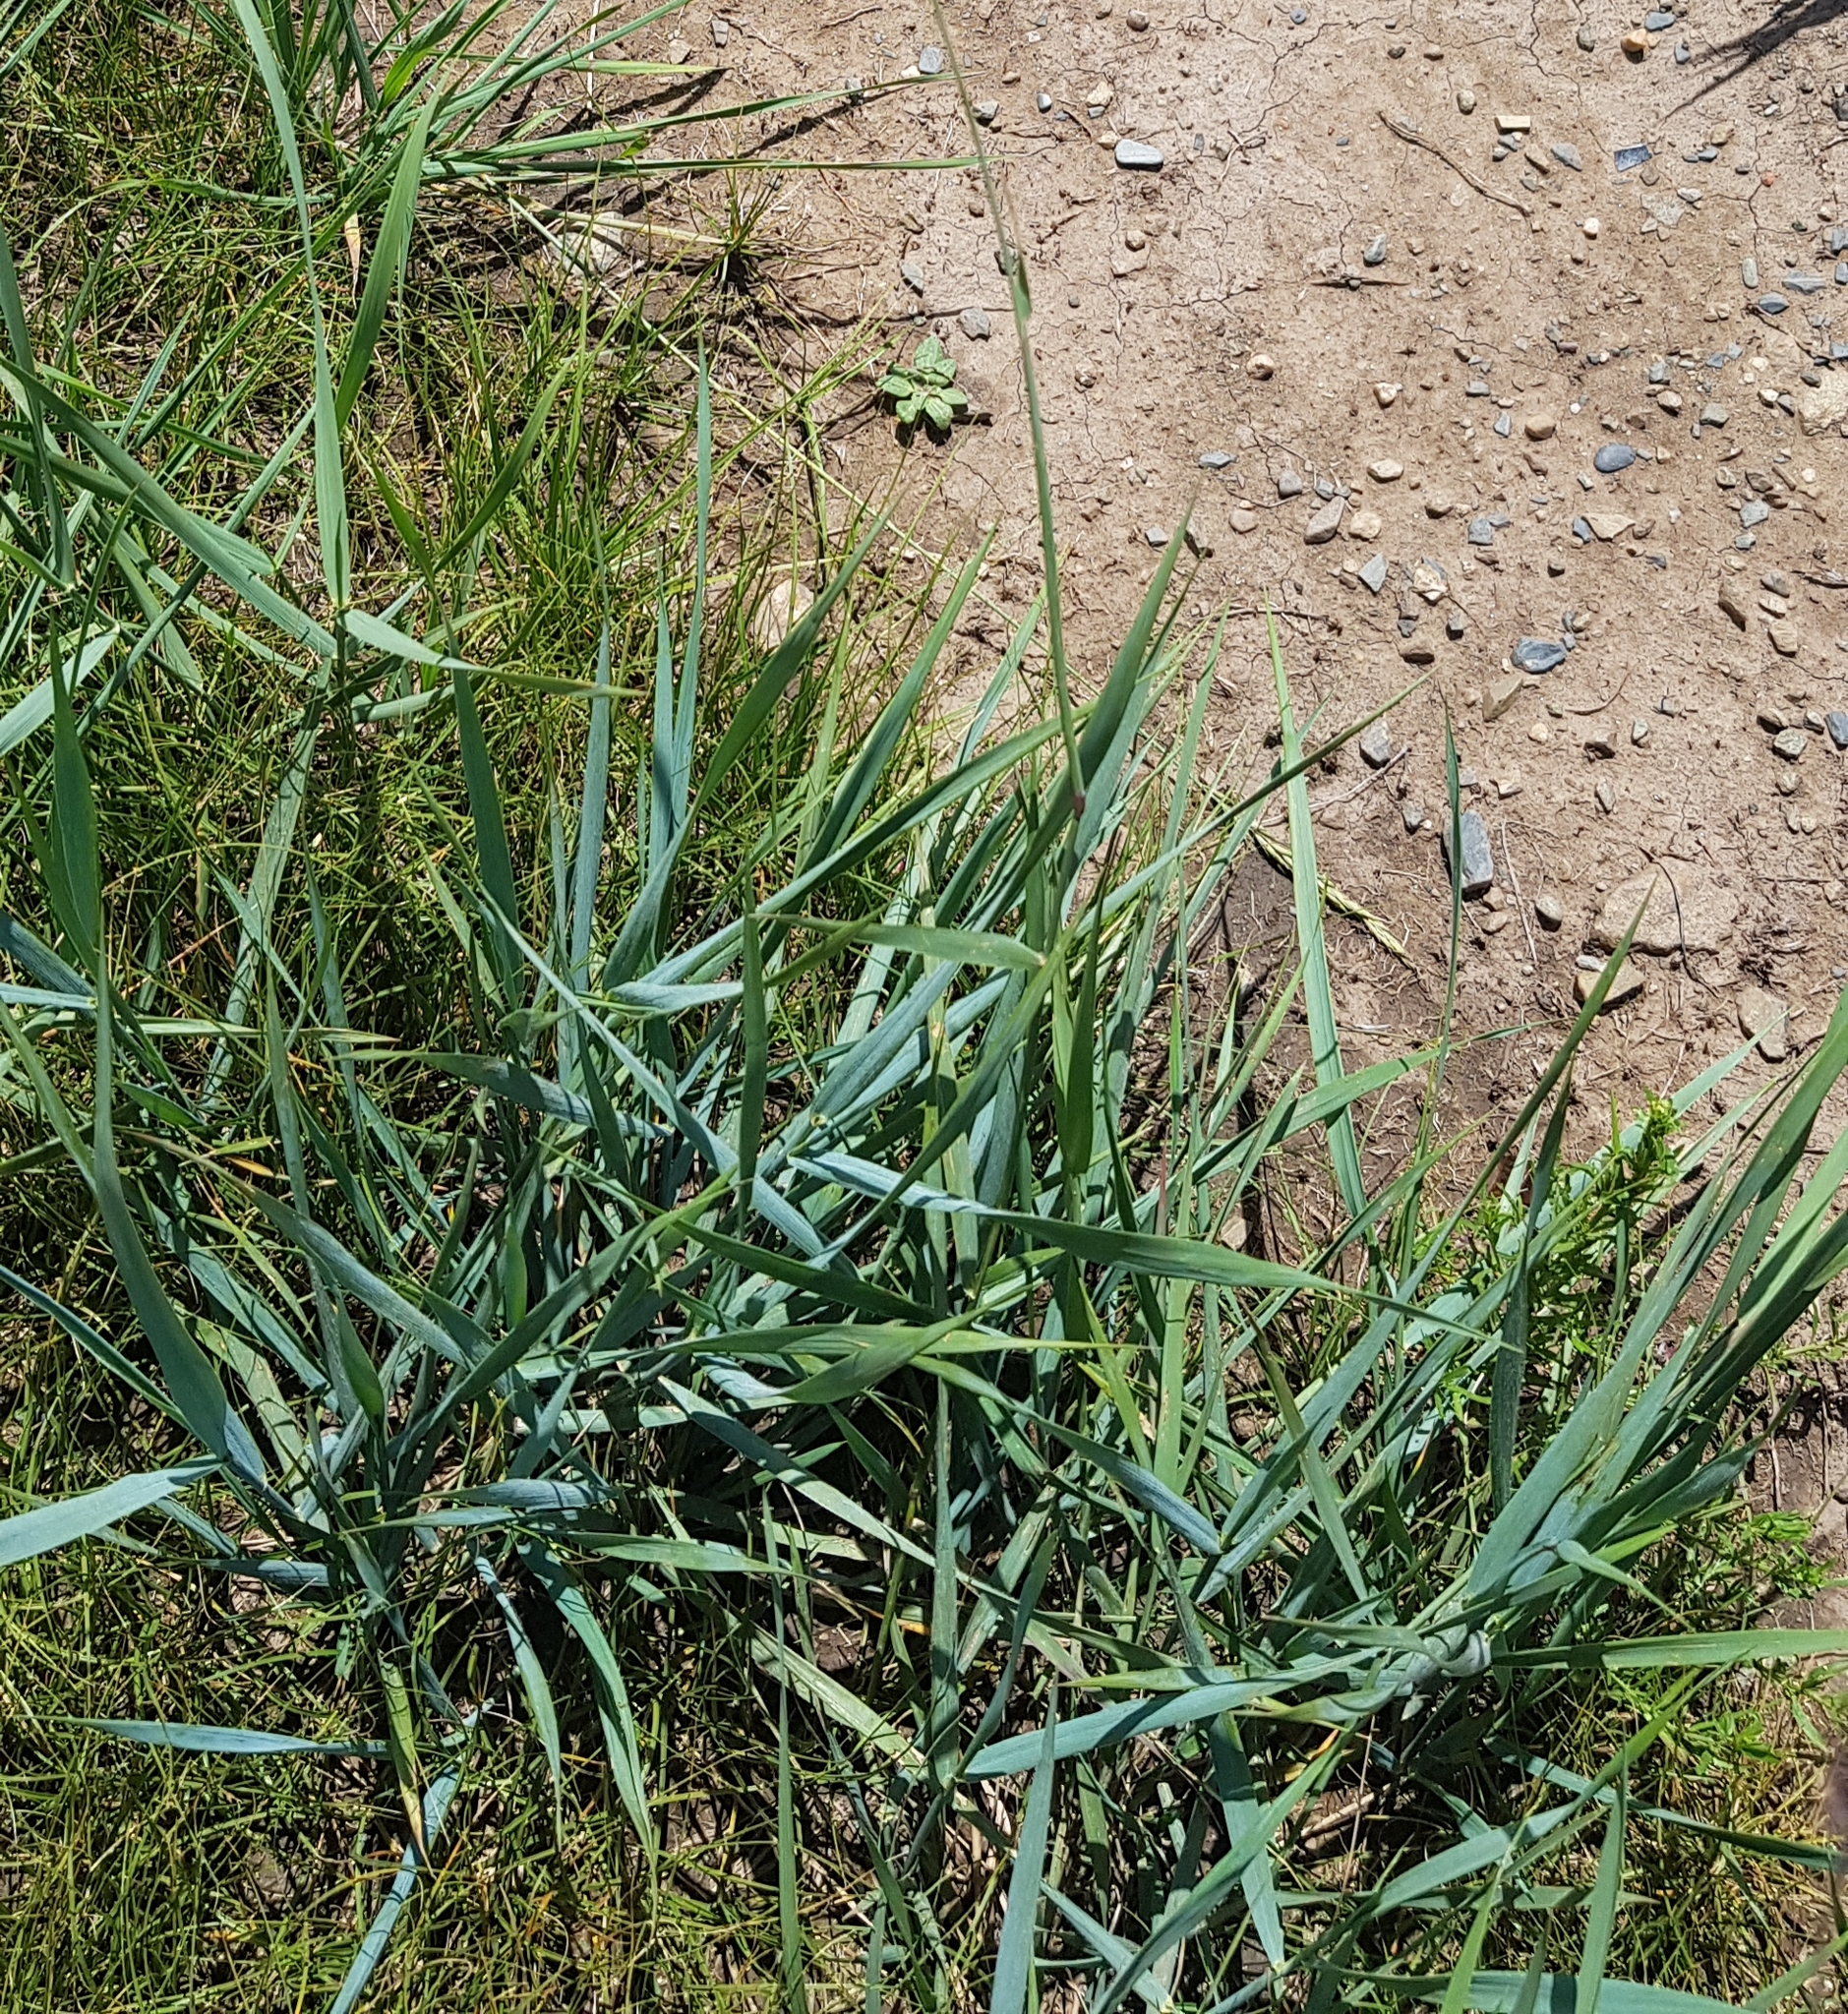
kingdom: Plantae
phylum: Tracheophyta
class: Liliopsida
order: Poales
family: Poaceae
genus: Leymus
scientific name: Leymus chinensis
